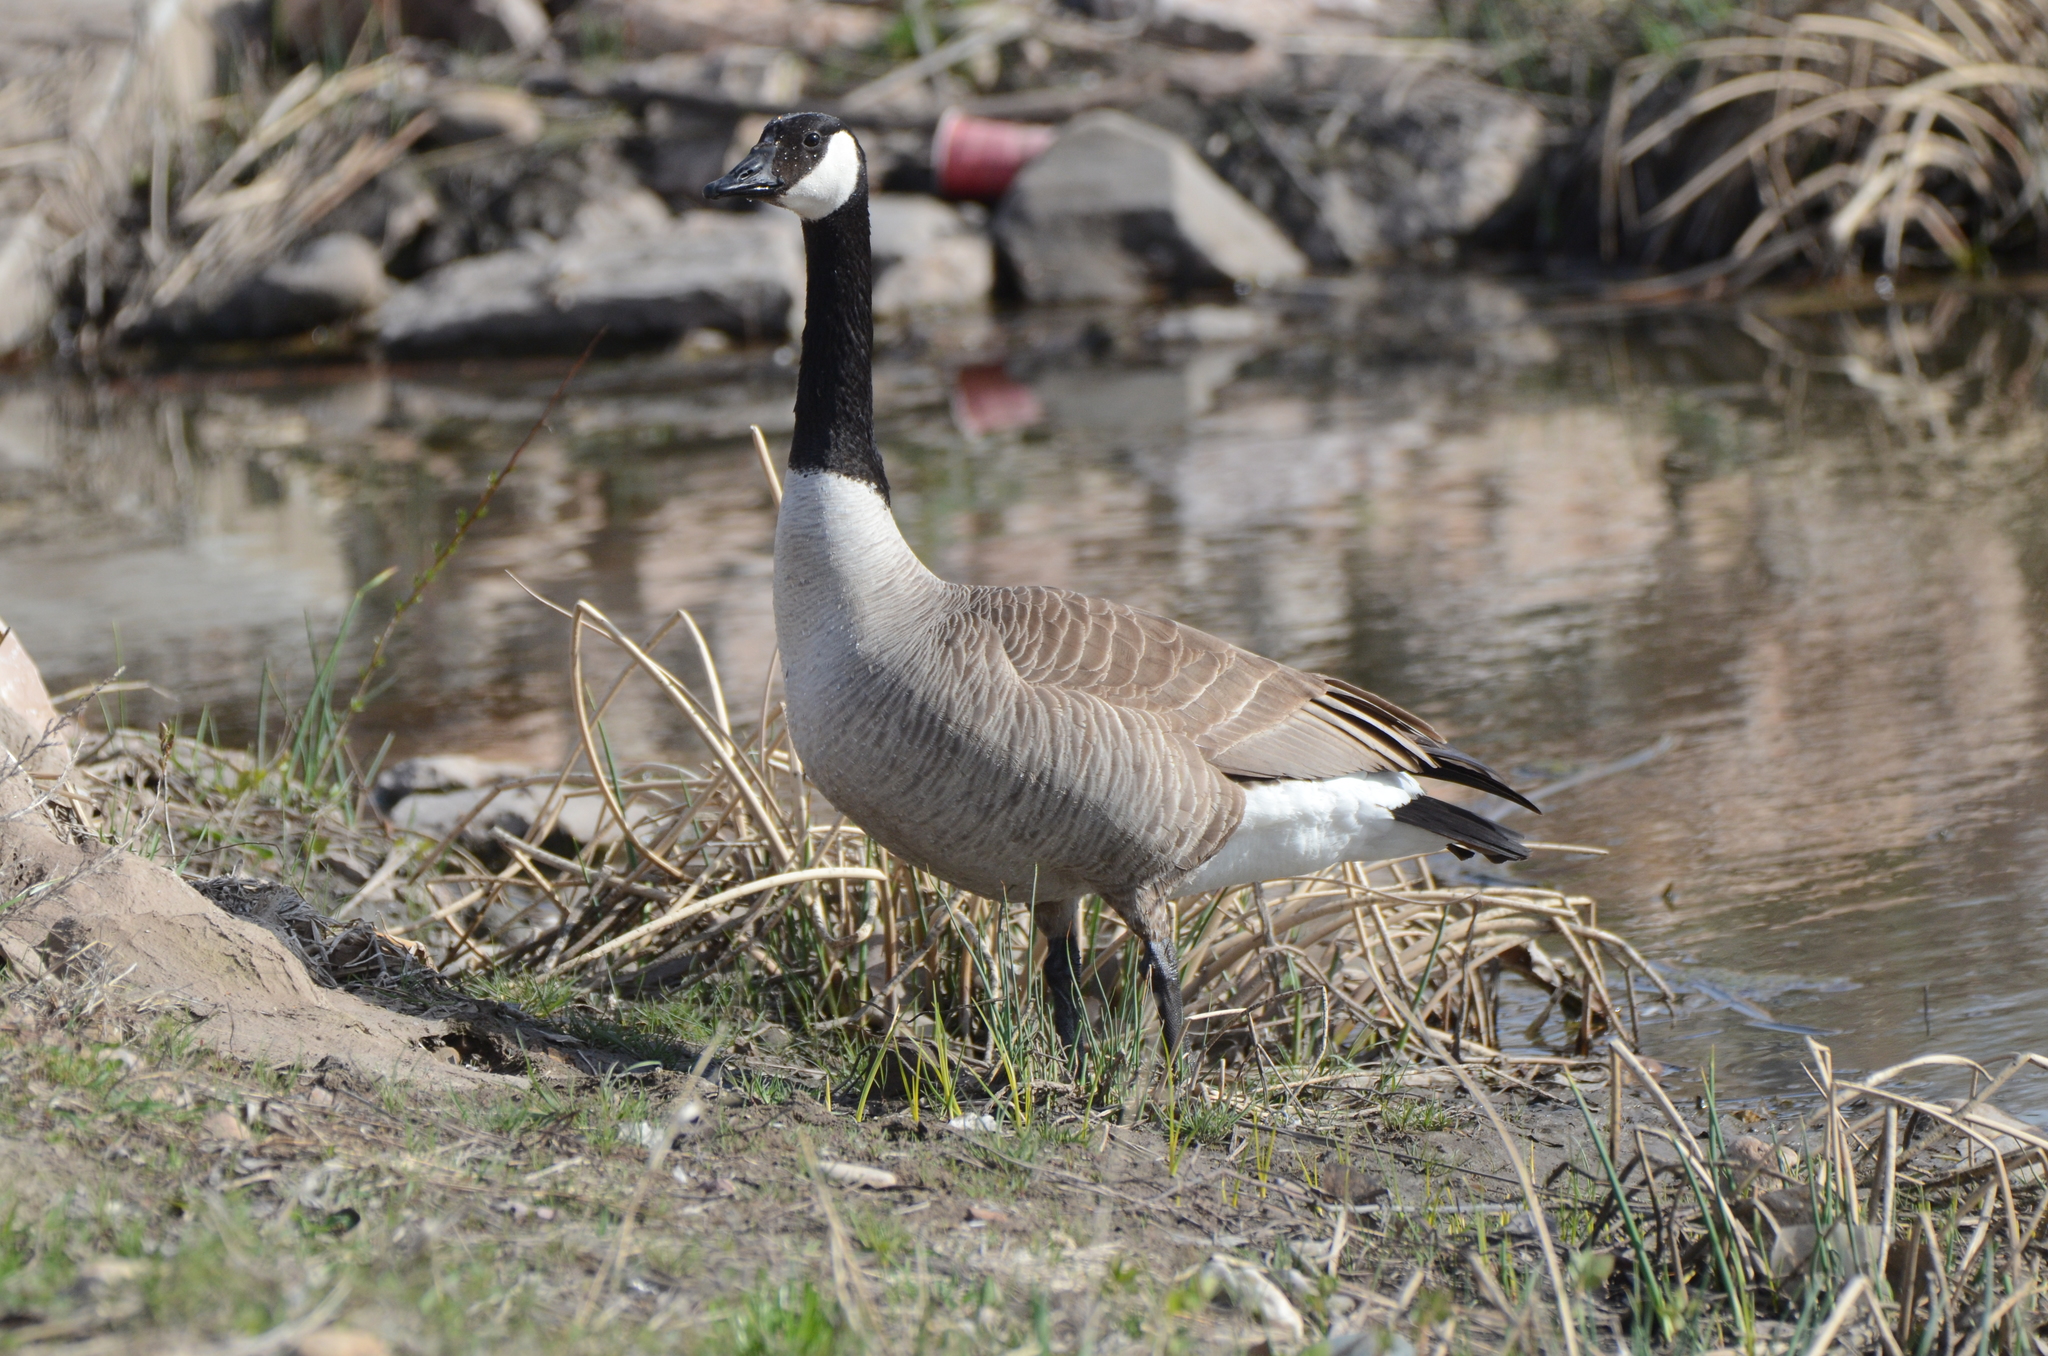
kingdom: Animalia
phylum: Chordata
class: Aves
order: Anseriformes
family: Anatidae
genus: Branta
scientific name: Branta canadensis
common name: Canada goose
